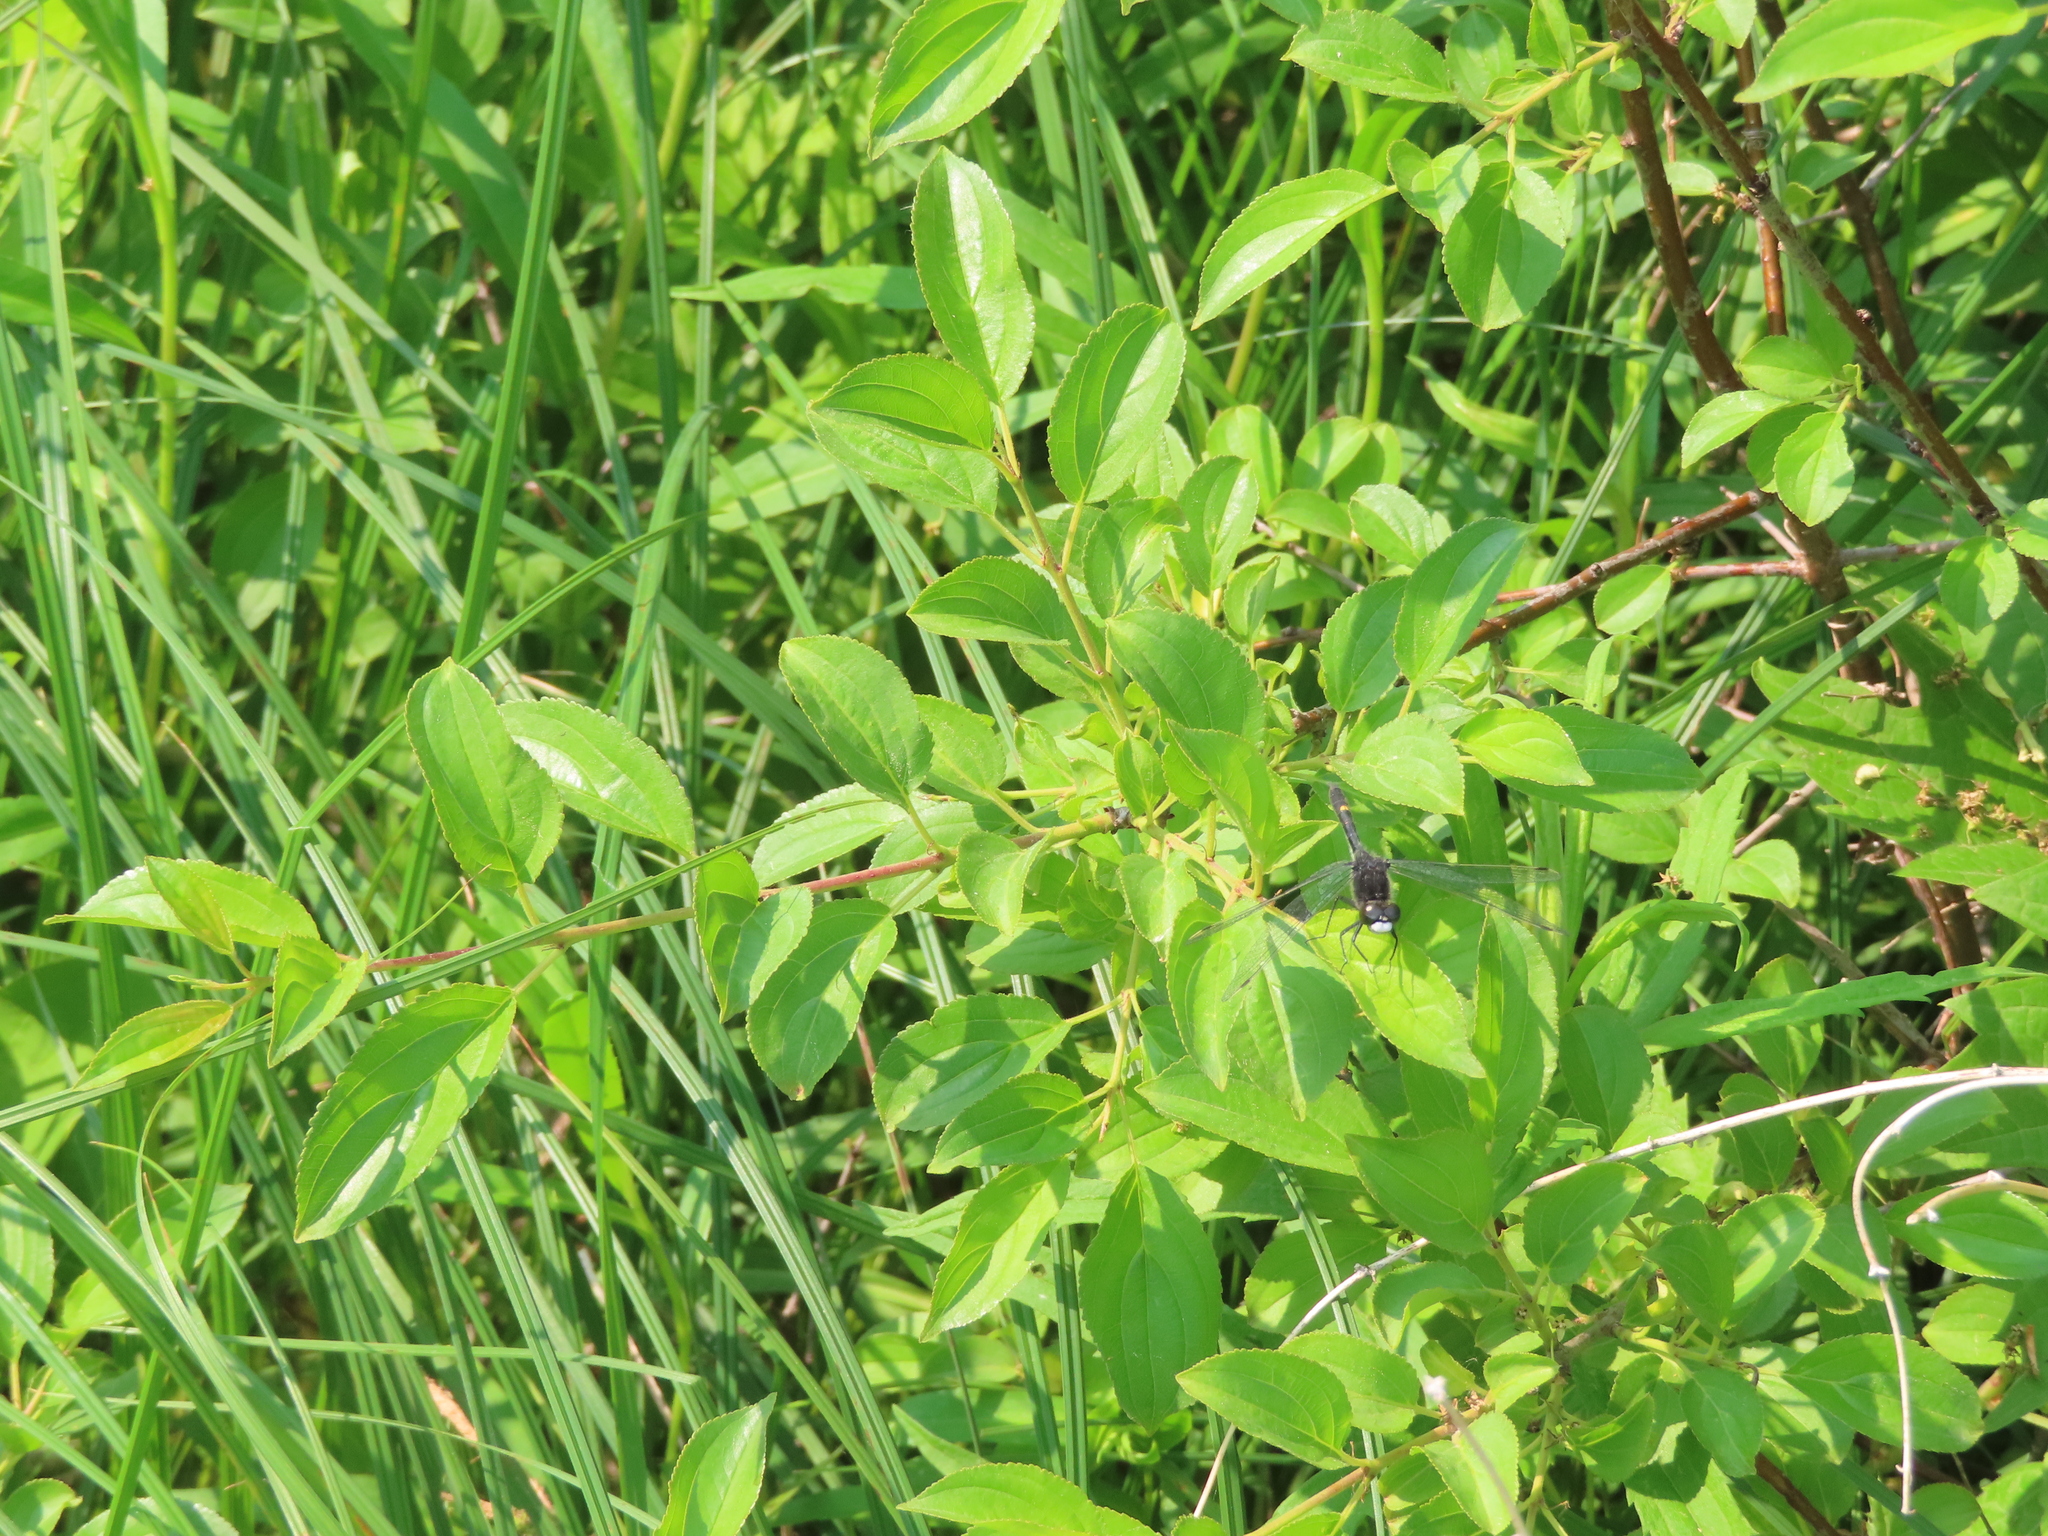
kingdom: Animalia
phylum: Arthropoda
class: Insecta
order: Odonata
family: Libellulidae
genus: Leucorrhinia
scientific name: Leucorrhinia intacta
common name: Dot-tailed whiteface
